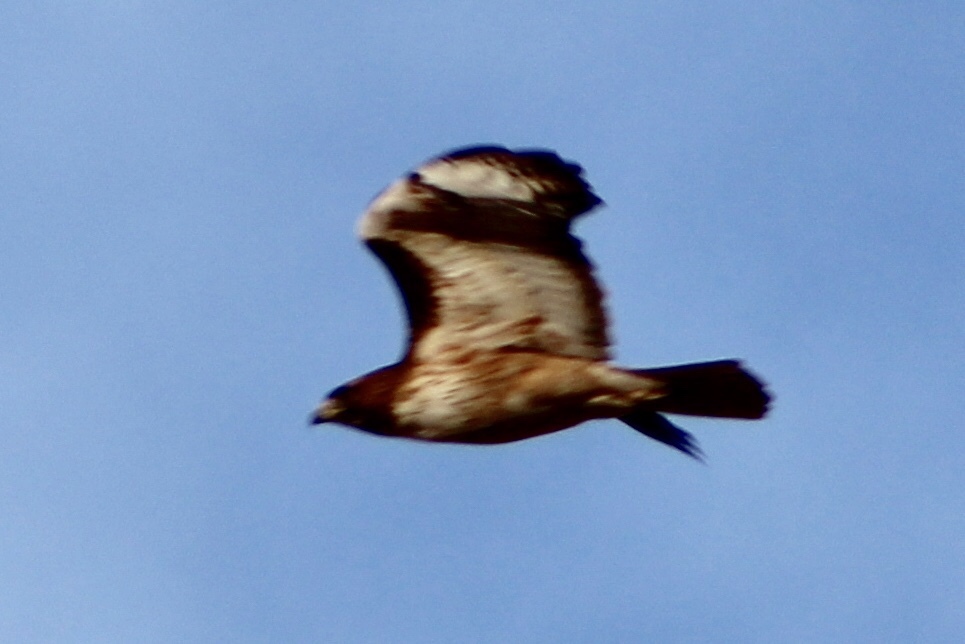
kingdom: Animalia
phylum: Chordata
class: Aves
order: Accipitriformes
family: Accipitridae
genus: Buteo
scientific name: Buteo jamaicensis
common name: Red-tailed hawk
